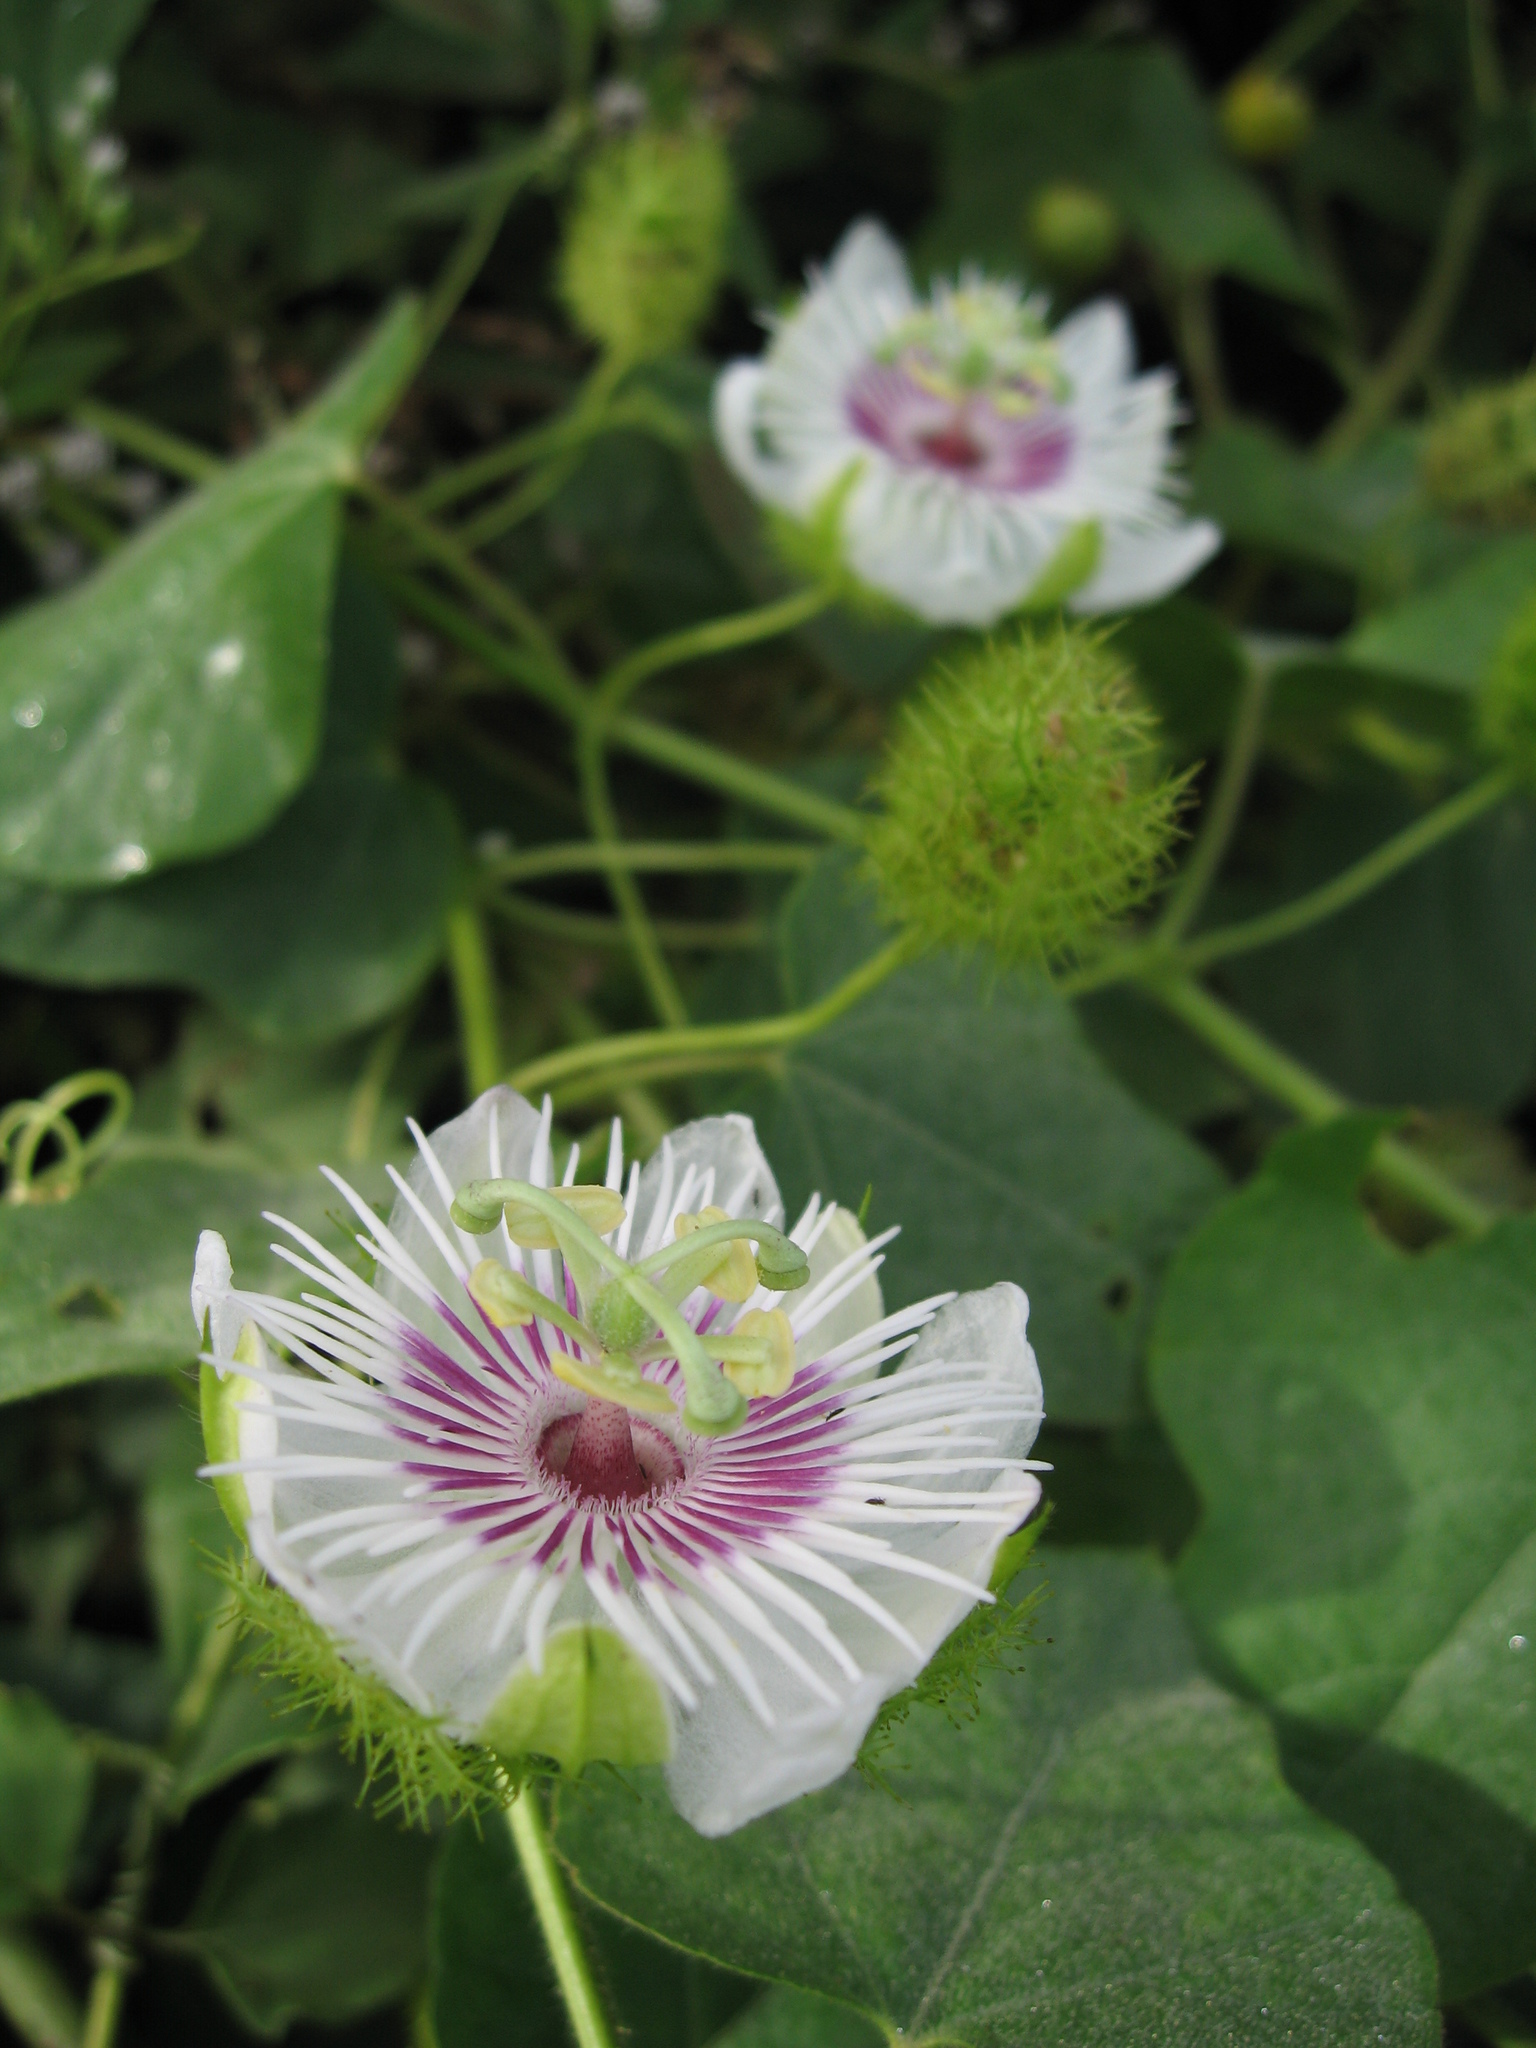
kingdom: Plantae
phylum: Tracheophyta
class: Magnoliopsida
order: Malpighiales
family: Passifloraceae
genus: Passiflora
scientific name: Passiflora foetida
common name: Fetid passionflower
